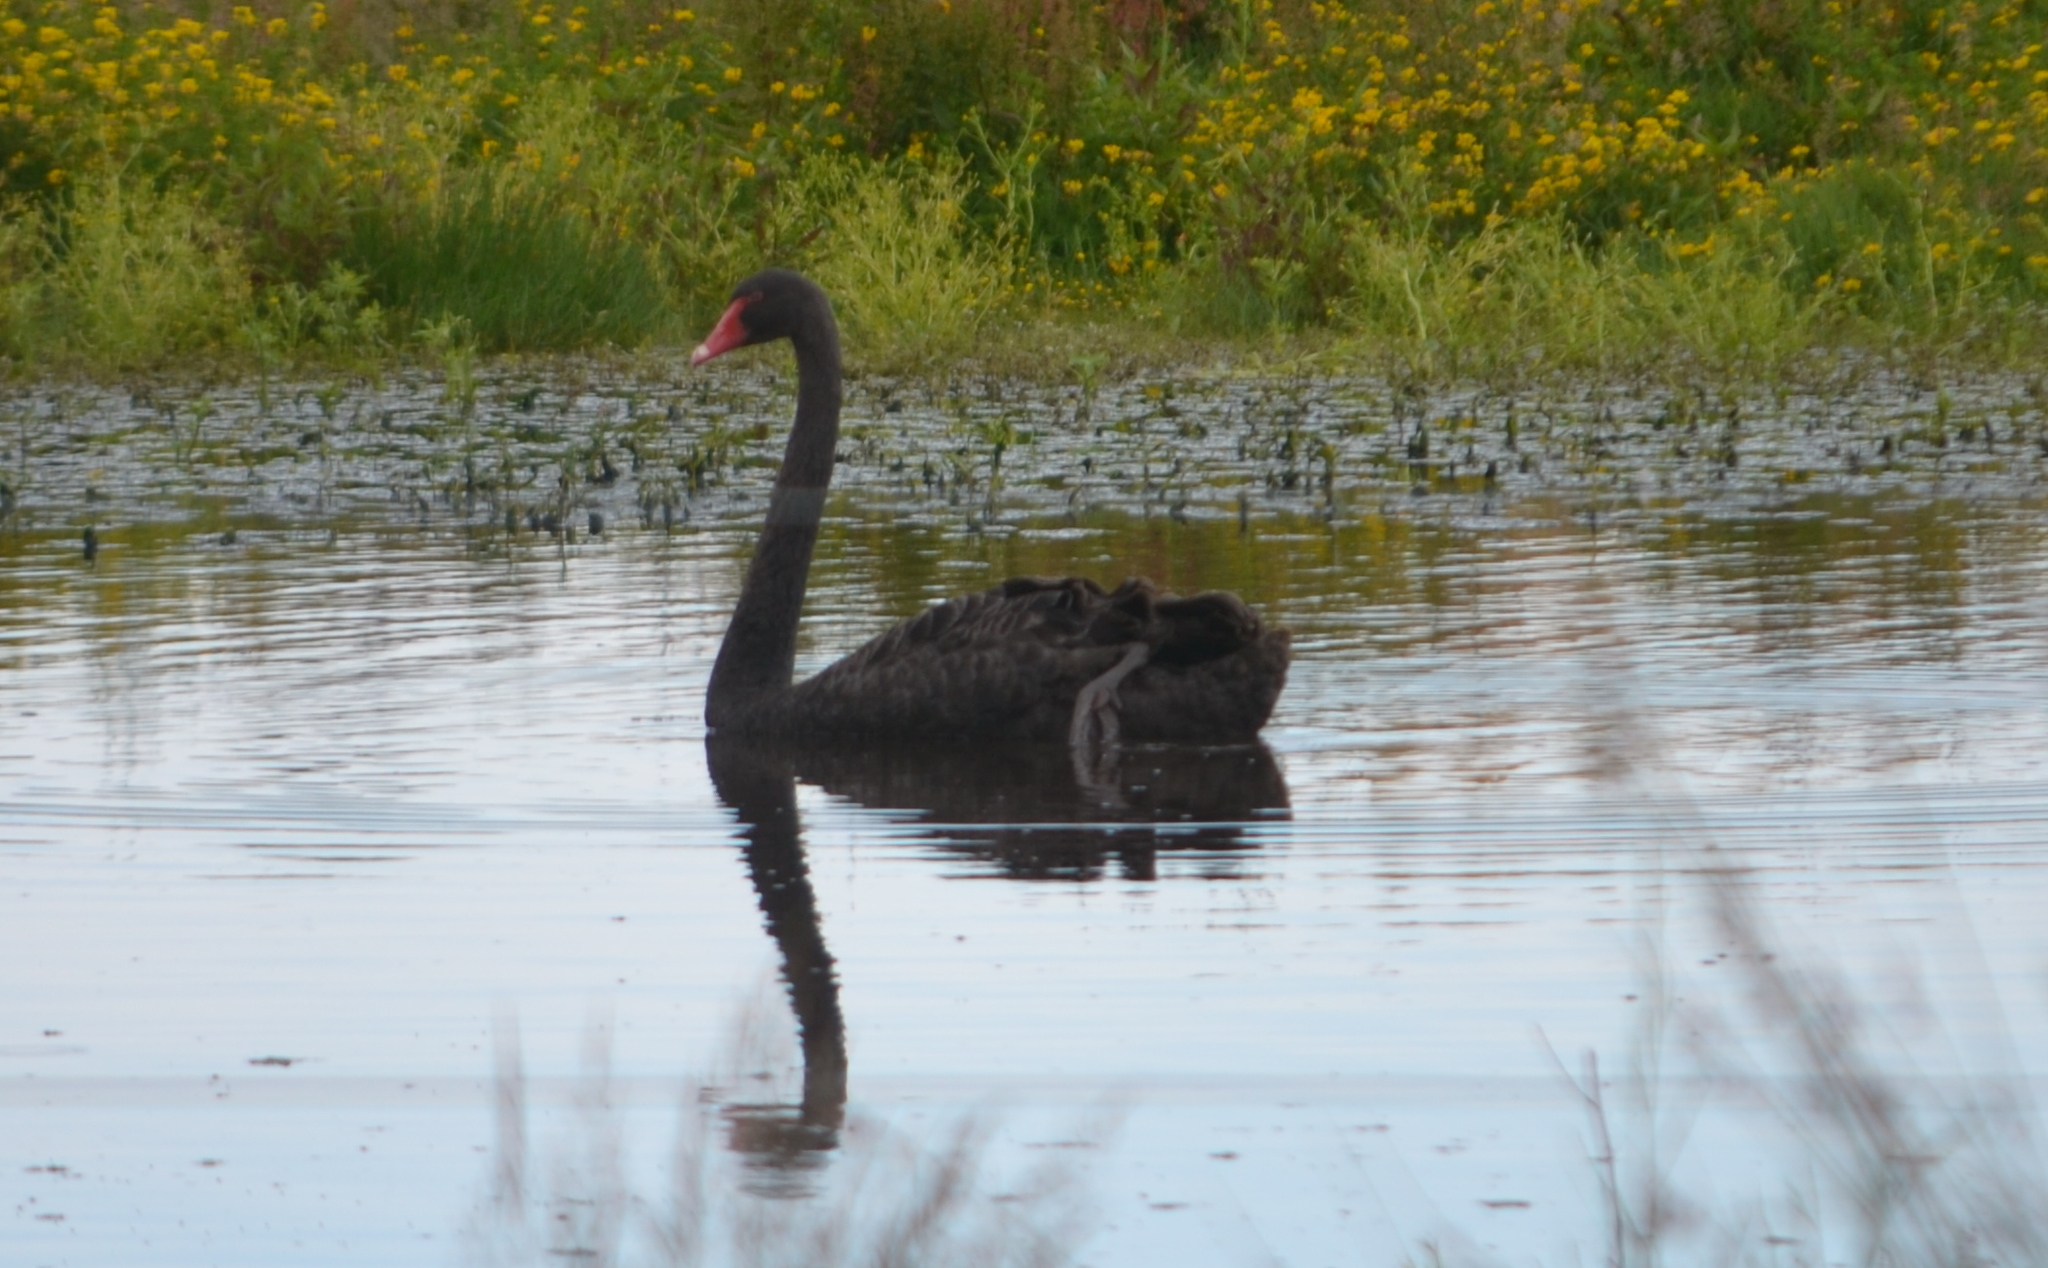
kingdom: Animalia
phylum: Chordata
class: Aves
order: Anseriformes
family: Anatidae
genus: Cygnus
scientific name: Cygnus atratus
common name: Black swan
